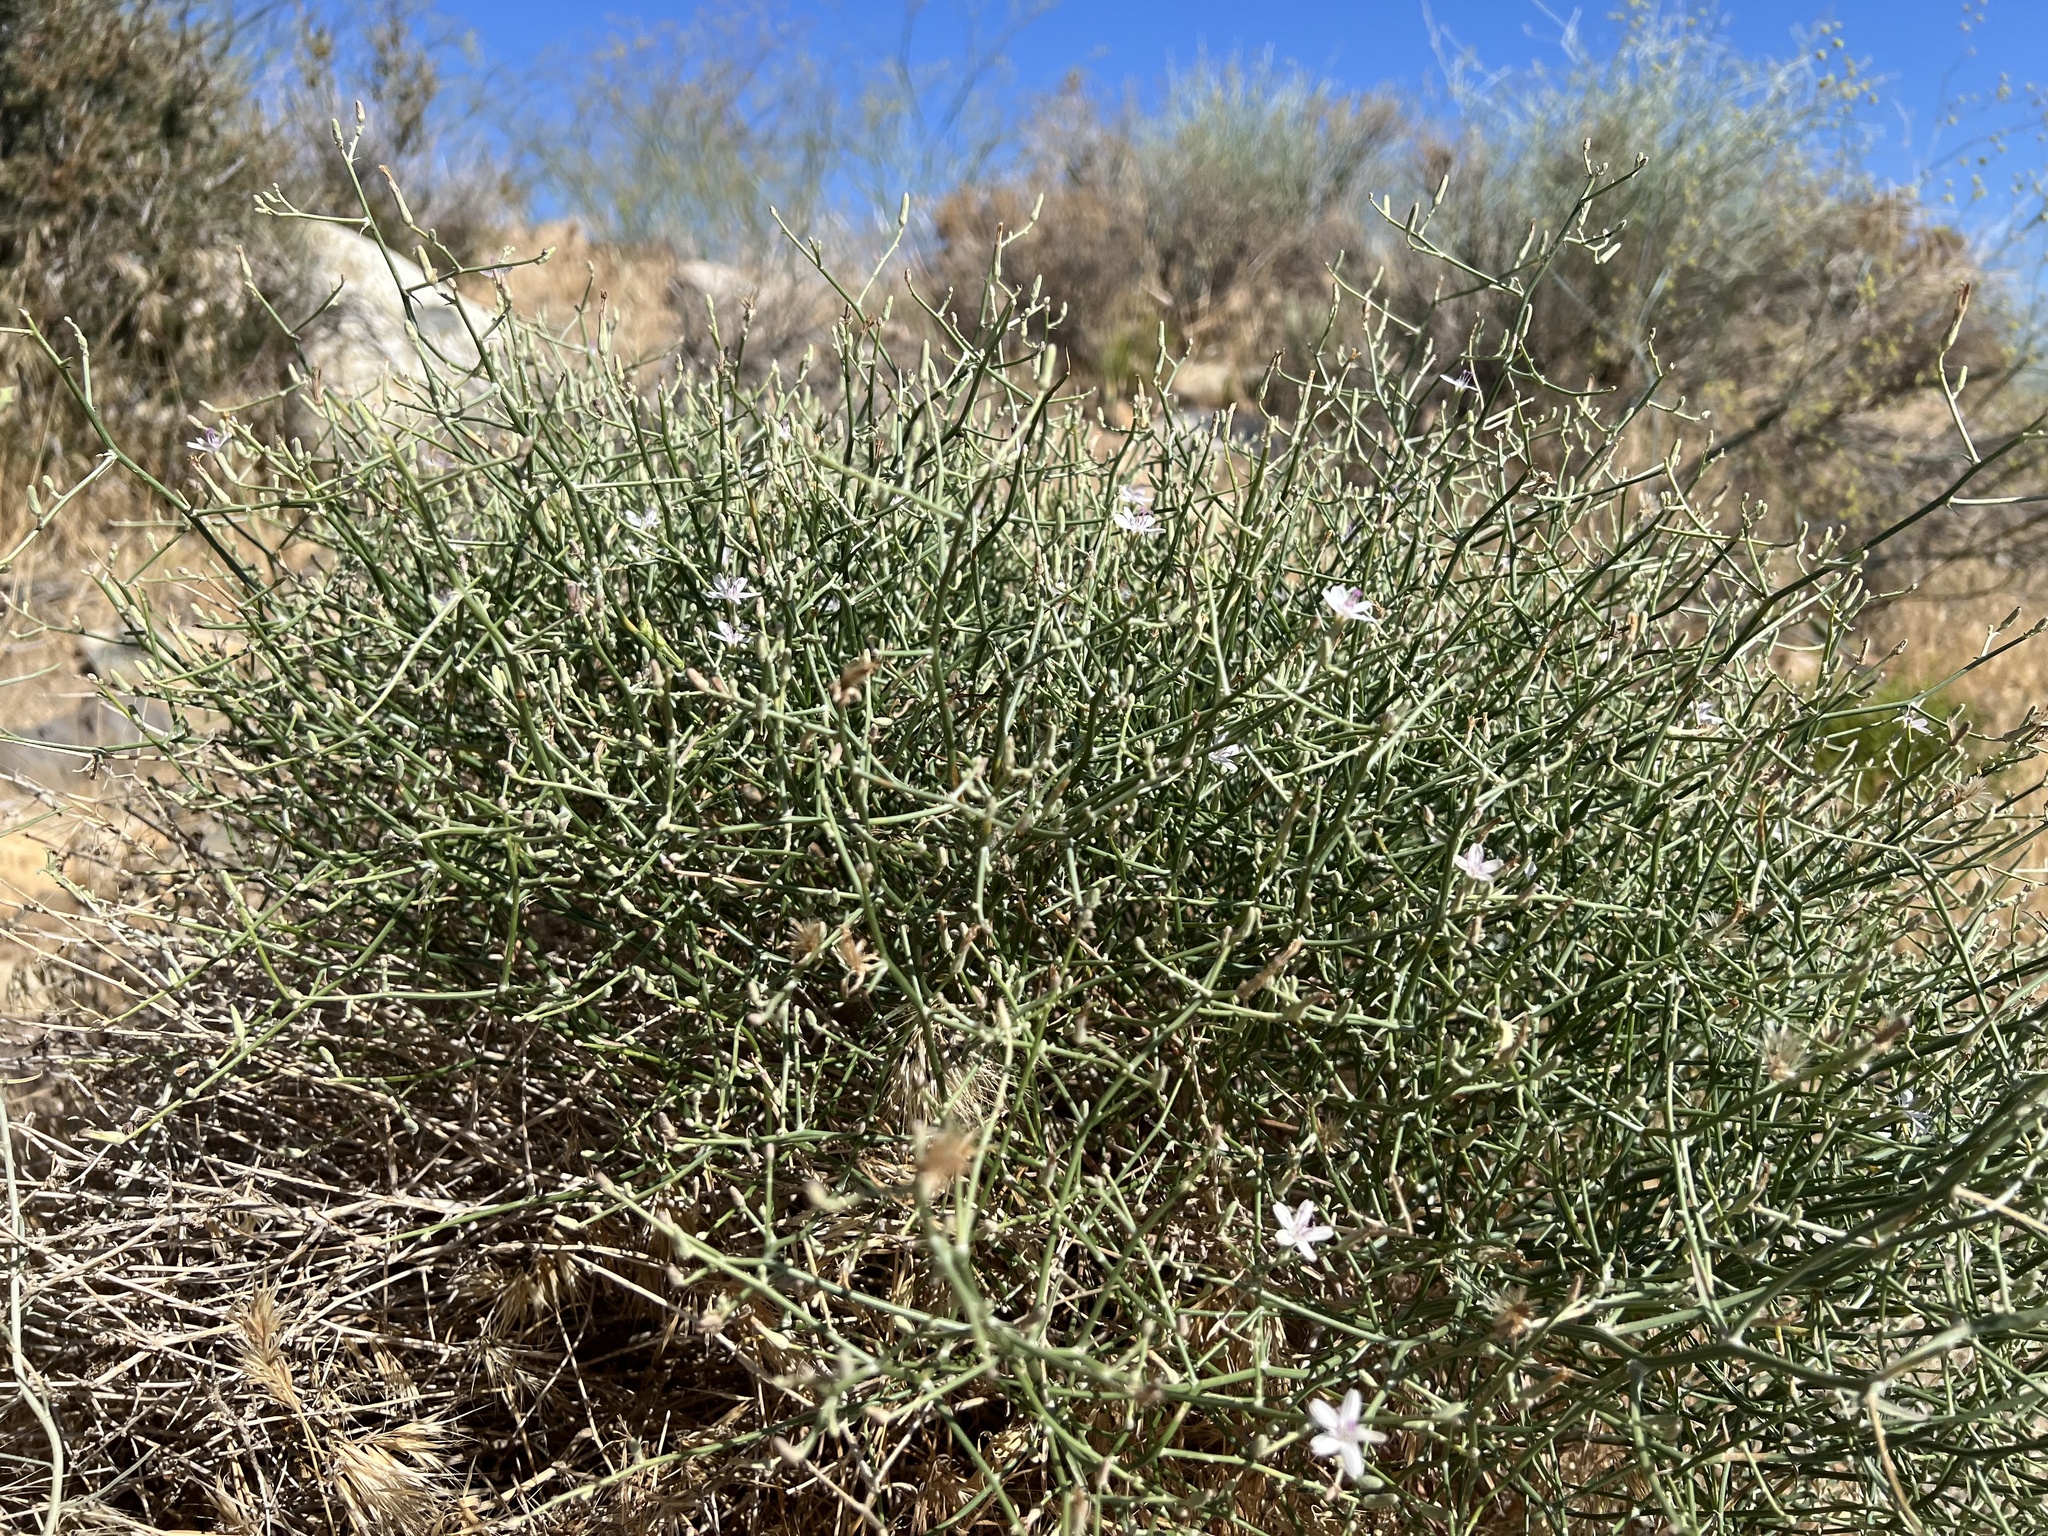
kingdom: Plantae
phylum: Tracheophyta
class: Magnoliopsida
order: Asterales
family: Asteraceae
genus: Stephanomeria
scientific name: Stephanomeria pauciflora
